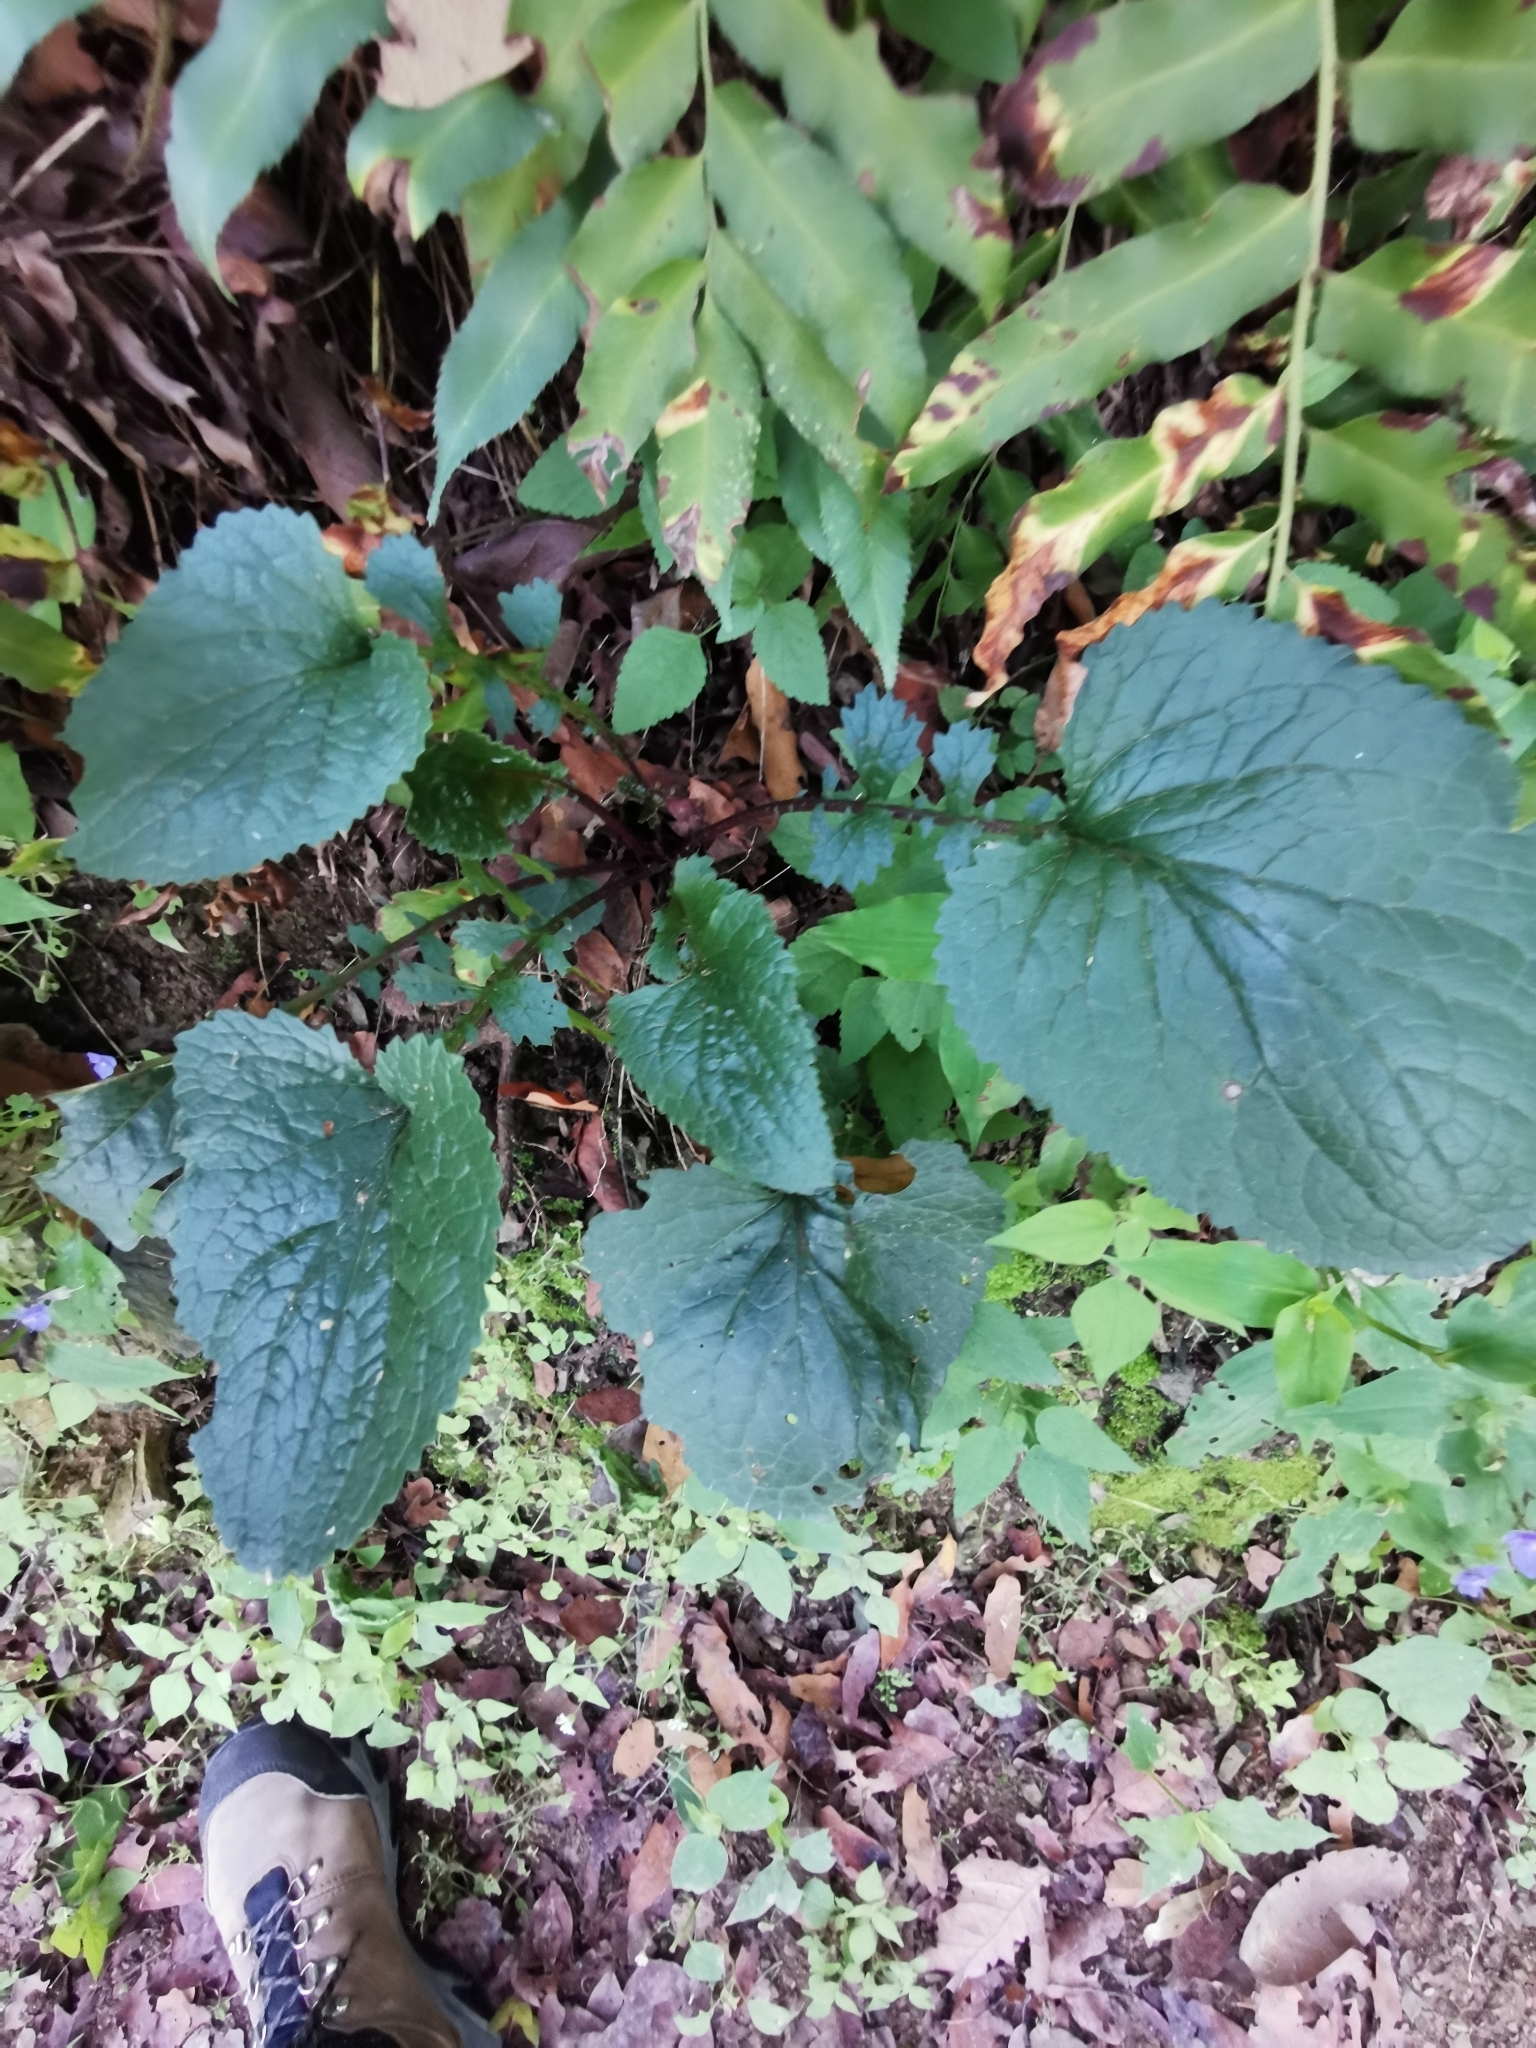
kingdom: Plantae
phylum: Tracheophyta
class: Magnoliopsida
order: Asterales
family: Asteraceae
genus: Packera
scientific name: Packera coahuilensis
